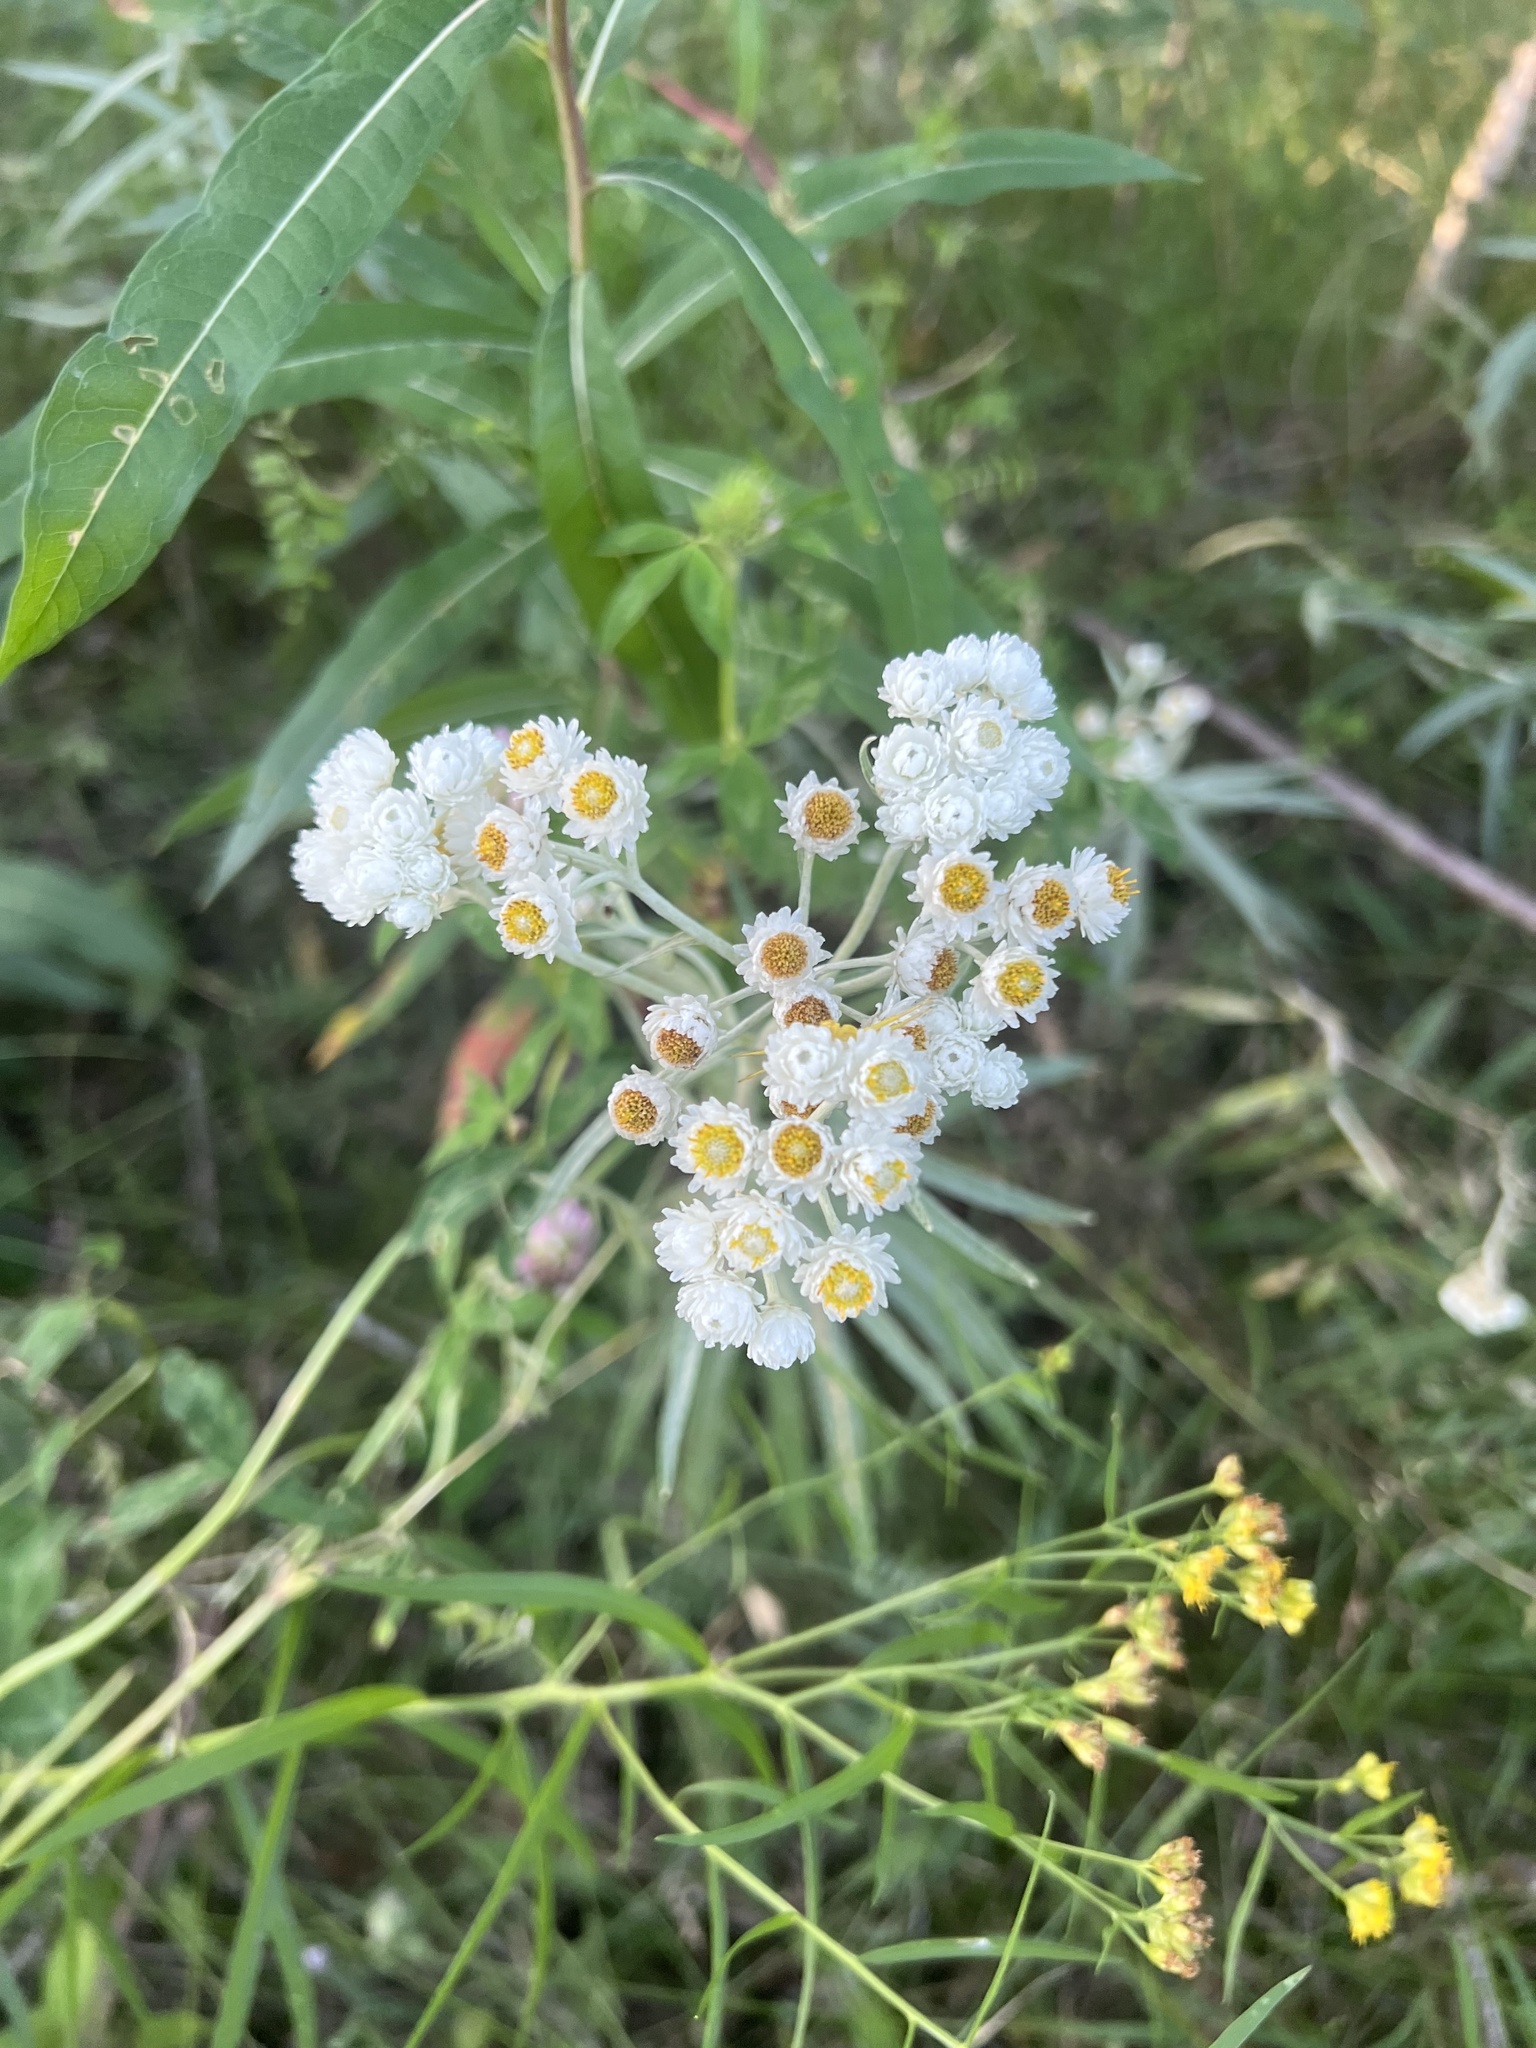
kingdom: Plantae
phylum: Tracheophyta
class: Magnoliopsida
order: Asterales
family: Asteraceae
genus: Anaphalis
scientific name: Anaphalis margaritacea
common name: Pearly everlasting
